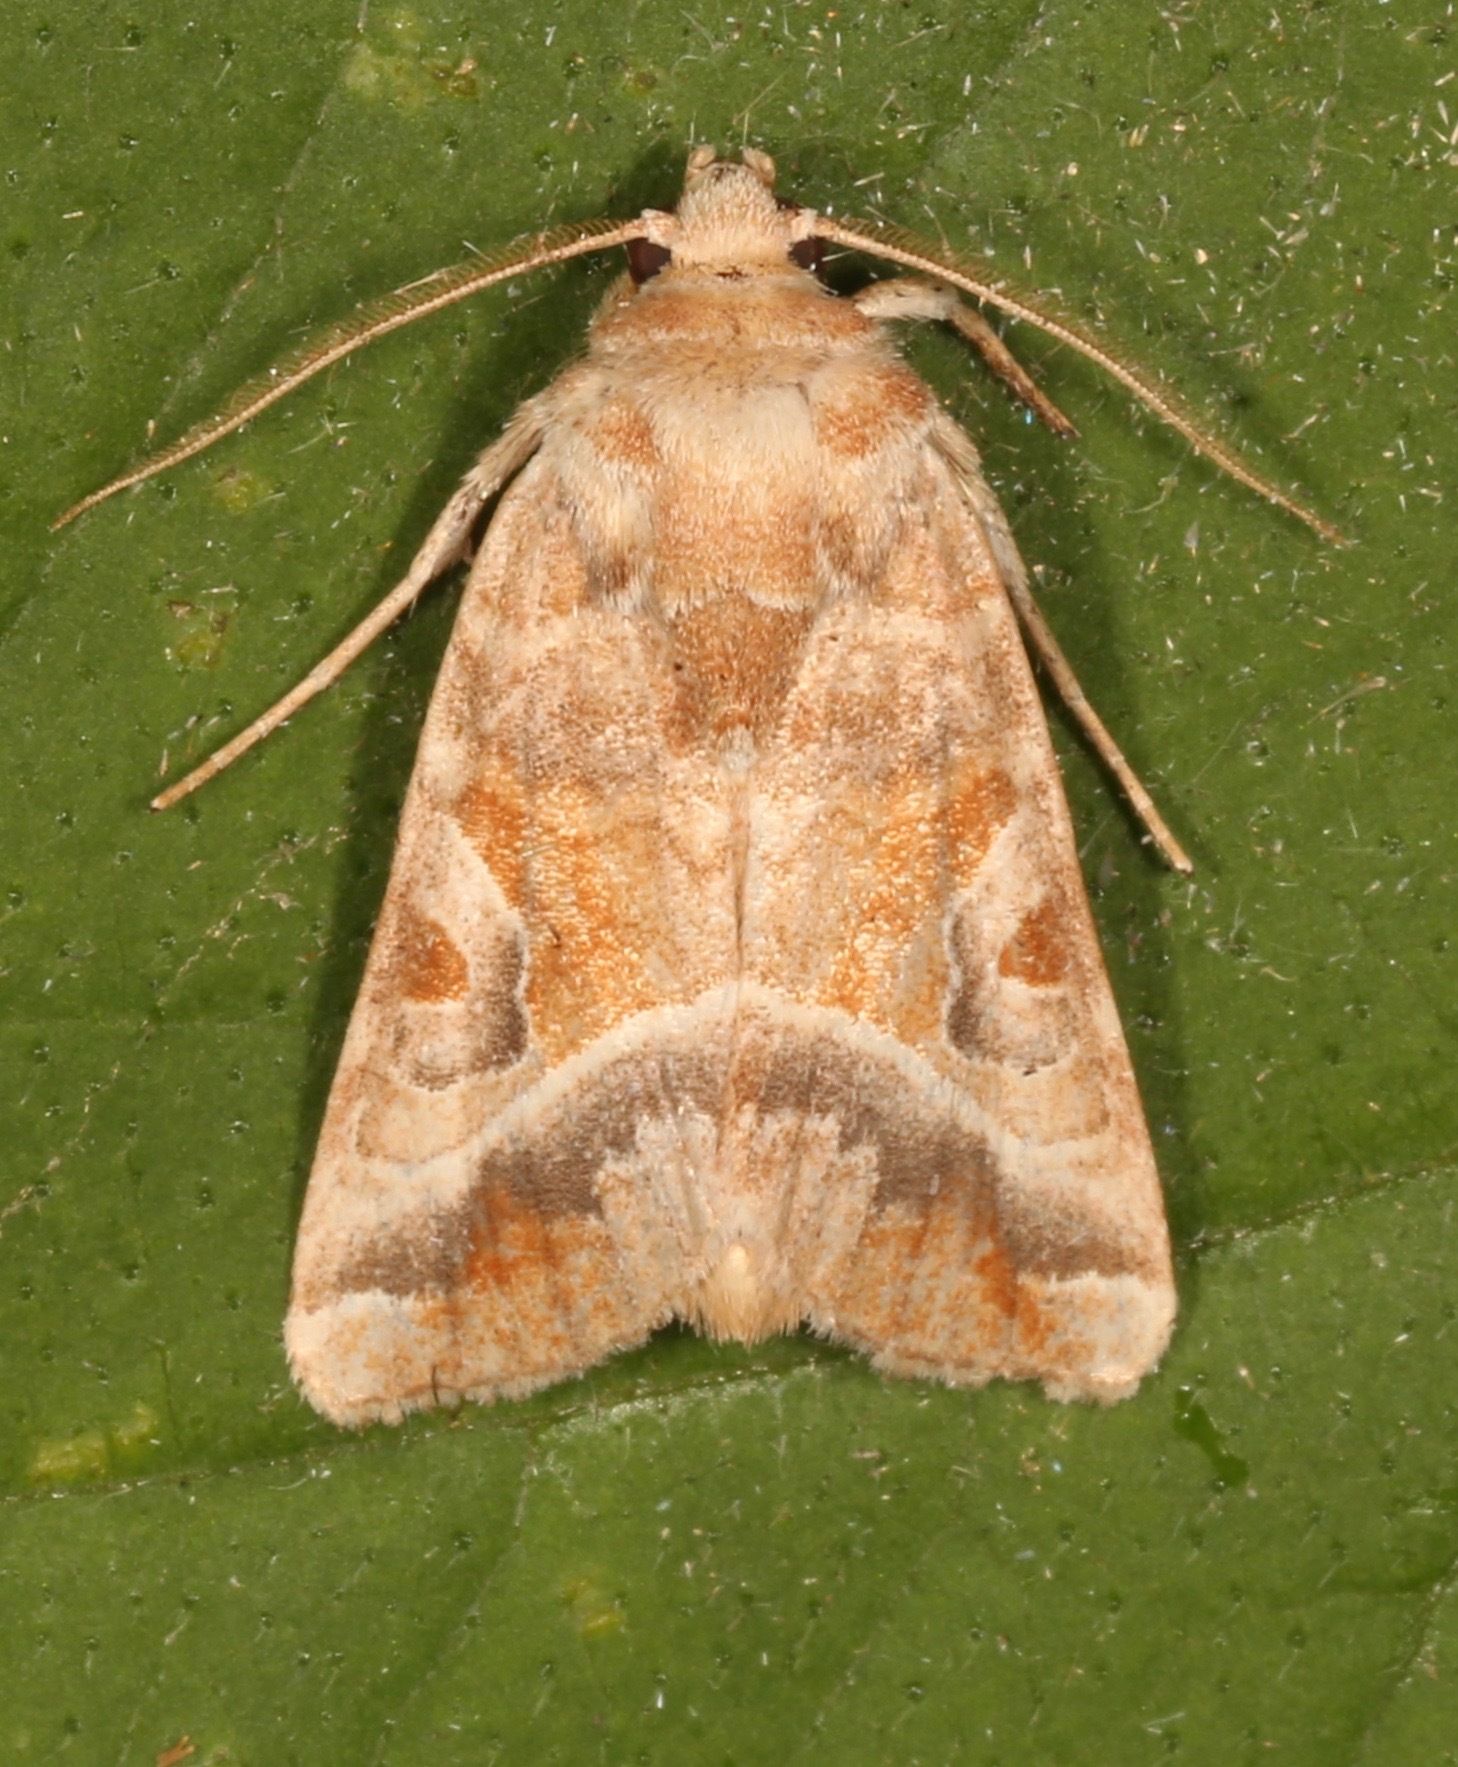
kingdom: Animalia
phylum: Arthropoda
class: Insecta
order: Lepidoptera
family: Noctuidae
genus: Hexorthodes
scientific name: Hexorthodes accurata
